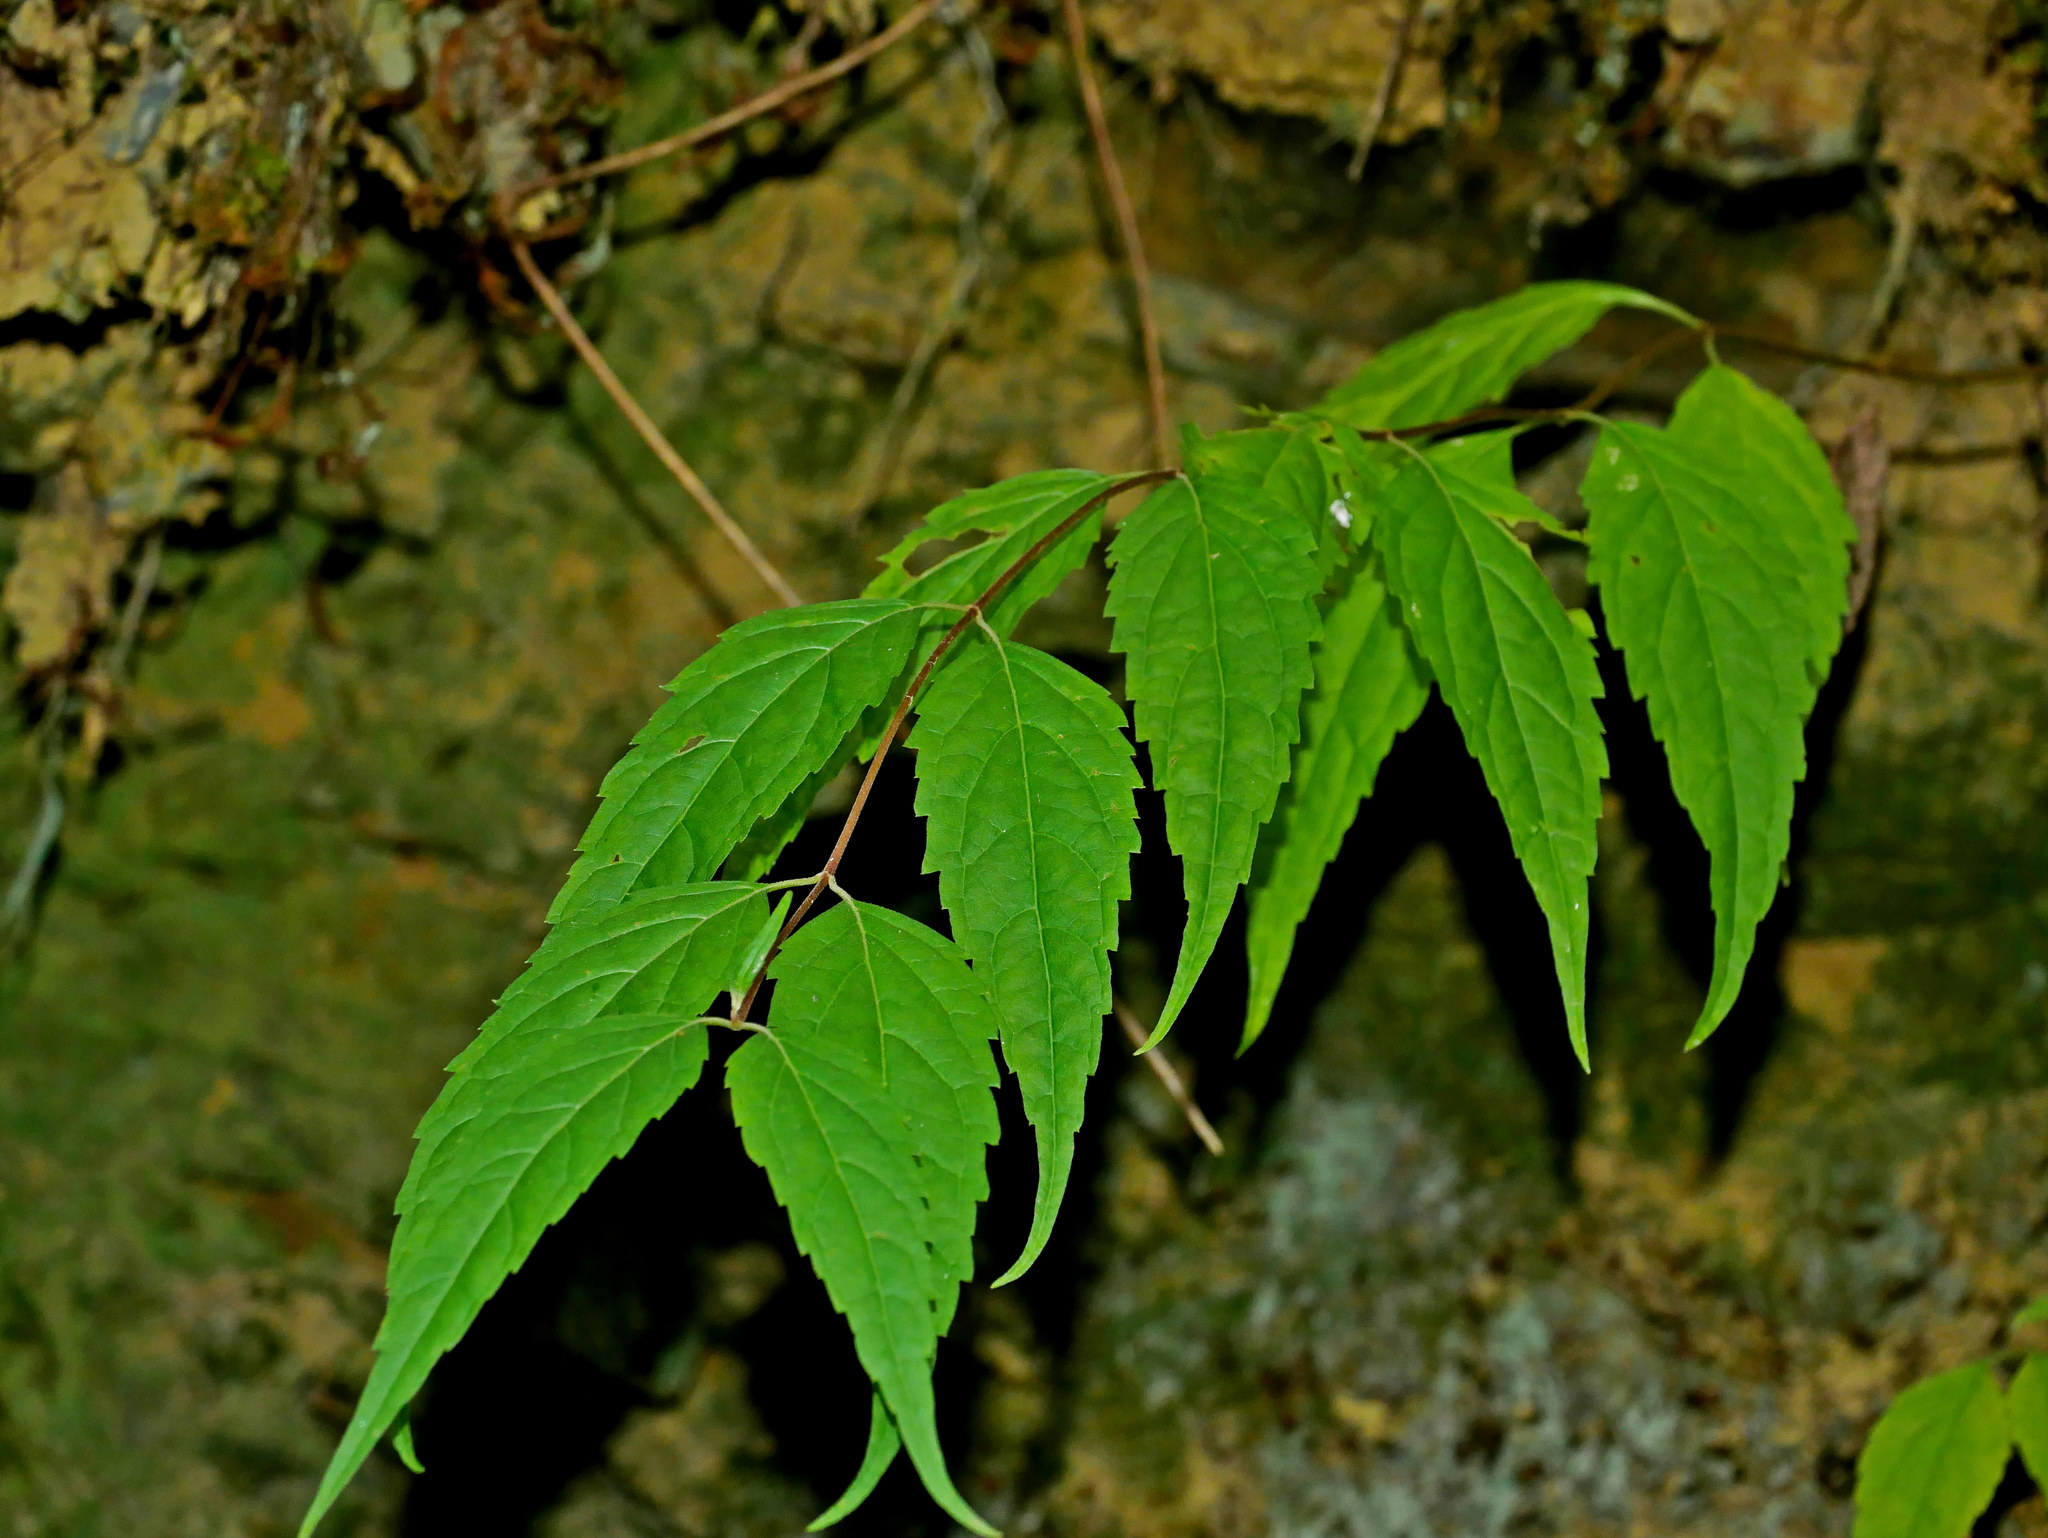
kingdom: Plantae
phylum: Tracheophyta
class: Magnoliopsida
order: Asterales
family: Asteraceae
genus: Eupatorium
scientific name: Eupatorium japonicum
